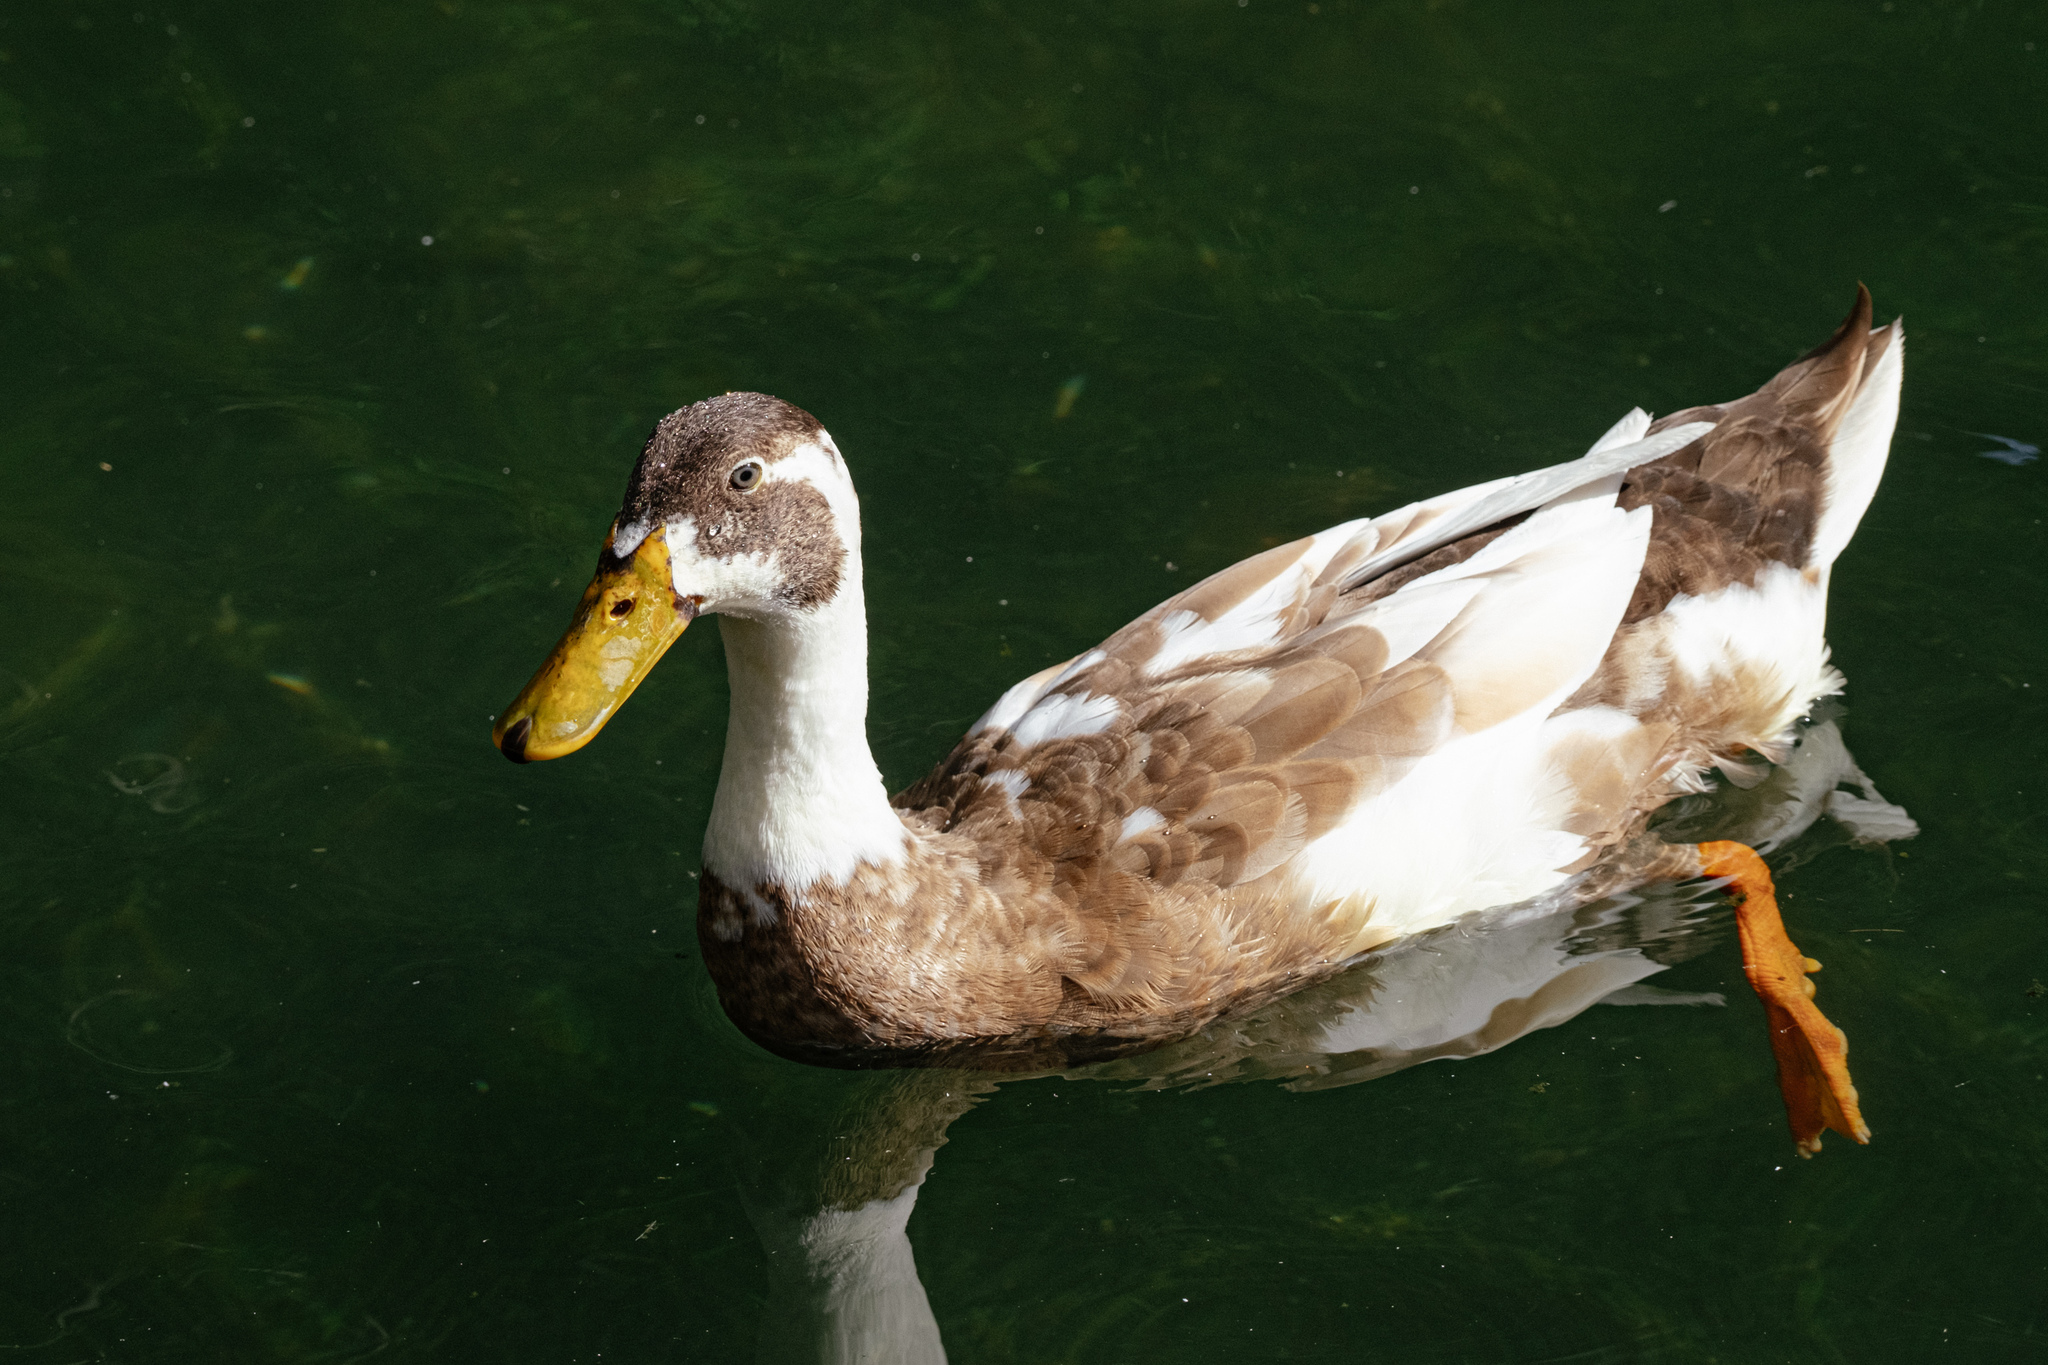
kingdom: Animalia
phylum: Chordata
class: Aves
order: Anseriformes
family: Anatidae
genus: Anas
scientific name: Anas platyrhynchos
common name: Mallard
